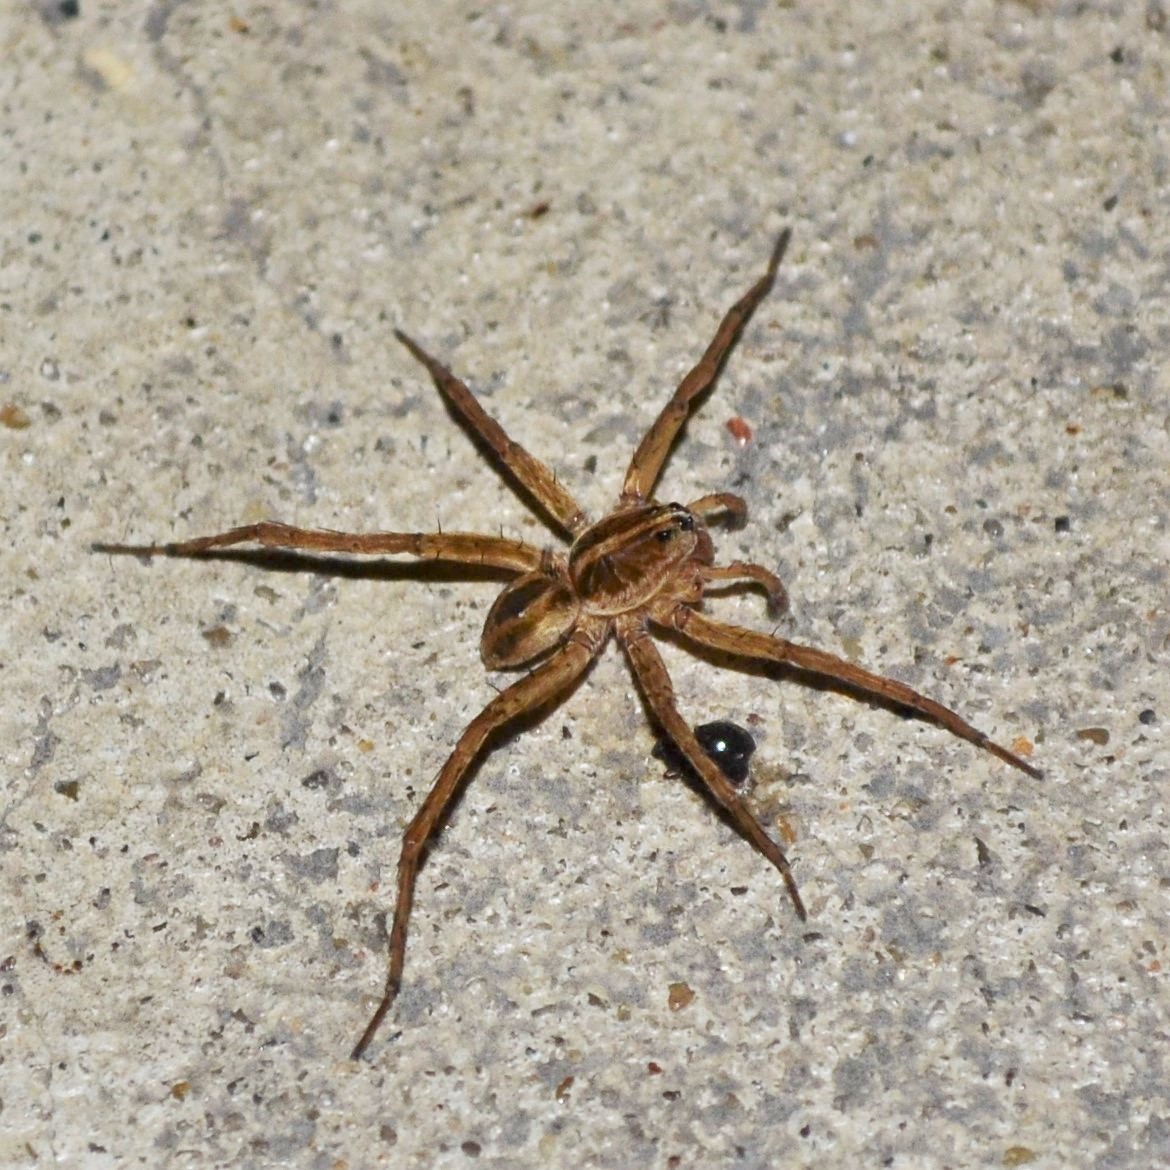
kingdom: Animalia
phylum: Arthropoda
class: Arachnida
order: Araneae
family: Lycosidae
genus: Tigrosa
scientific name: Tigrosa annexa
